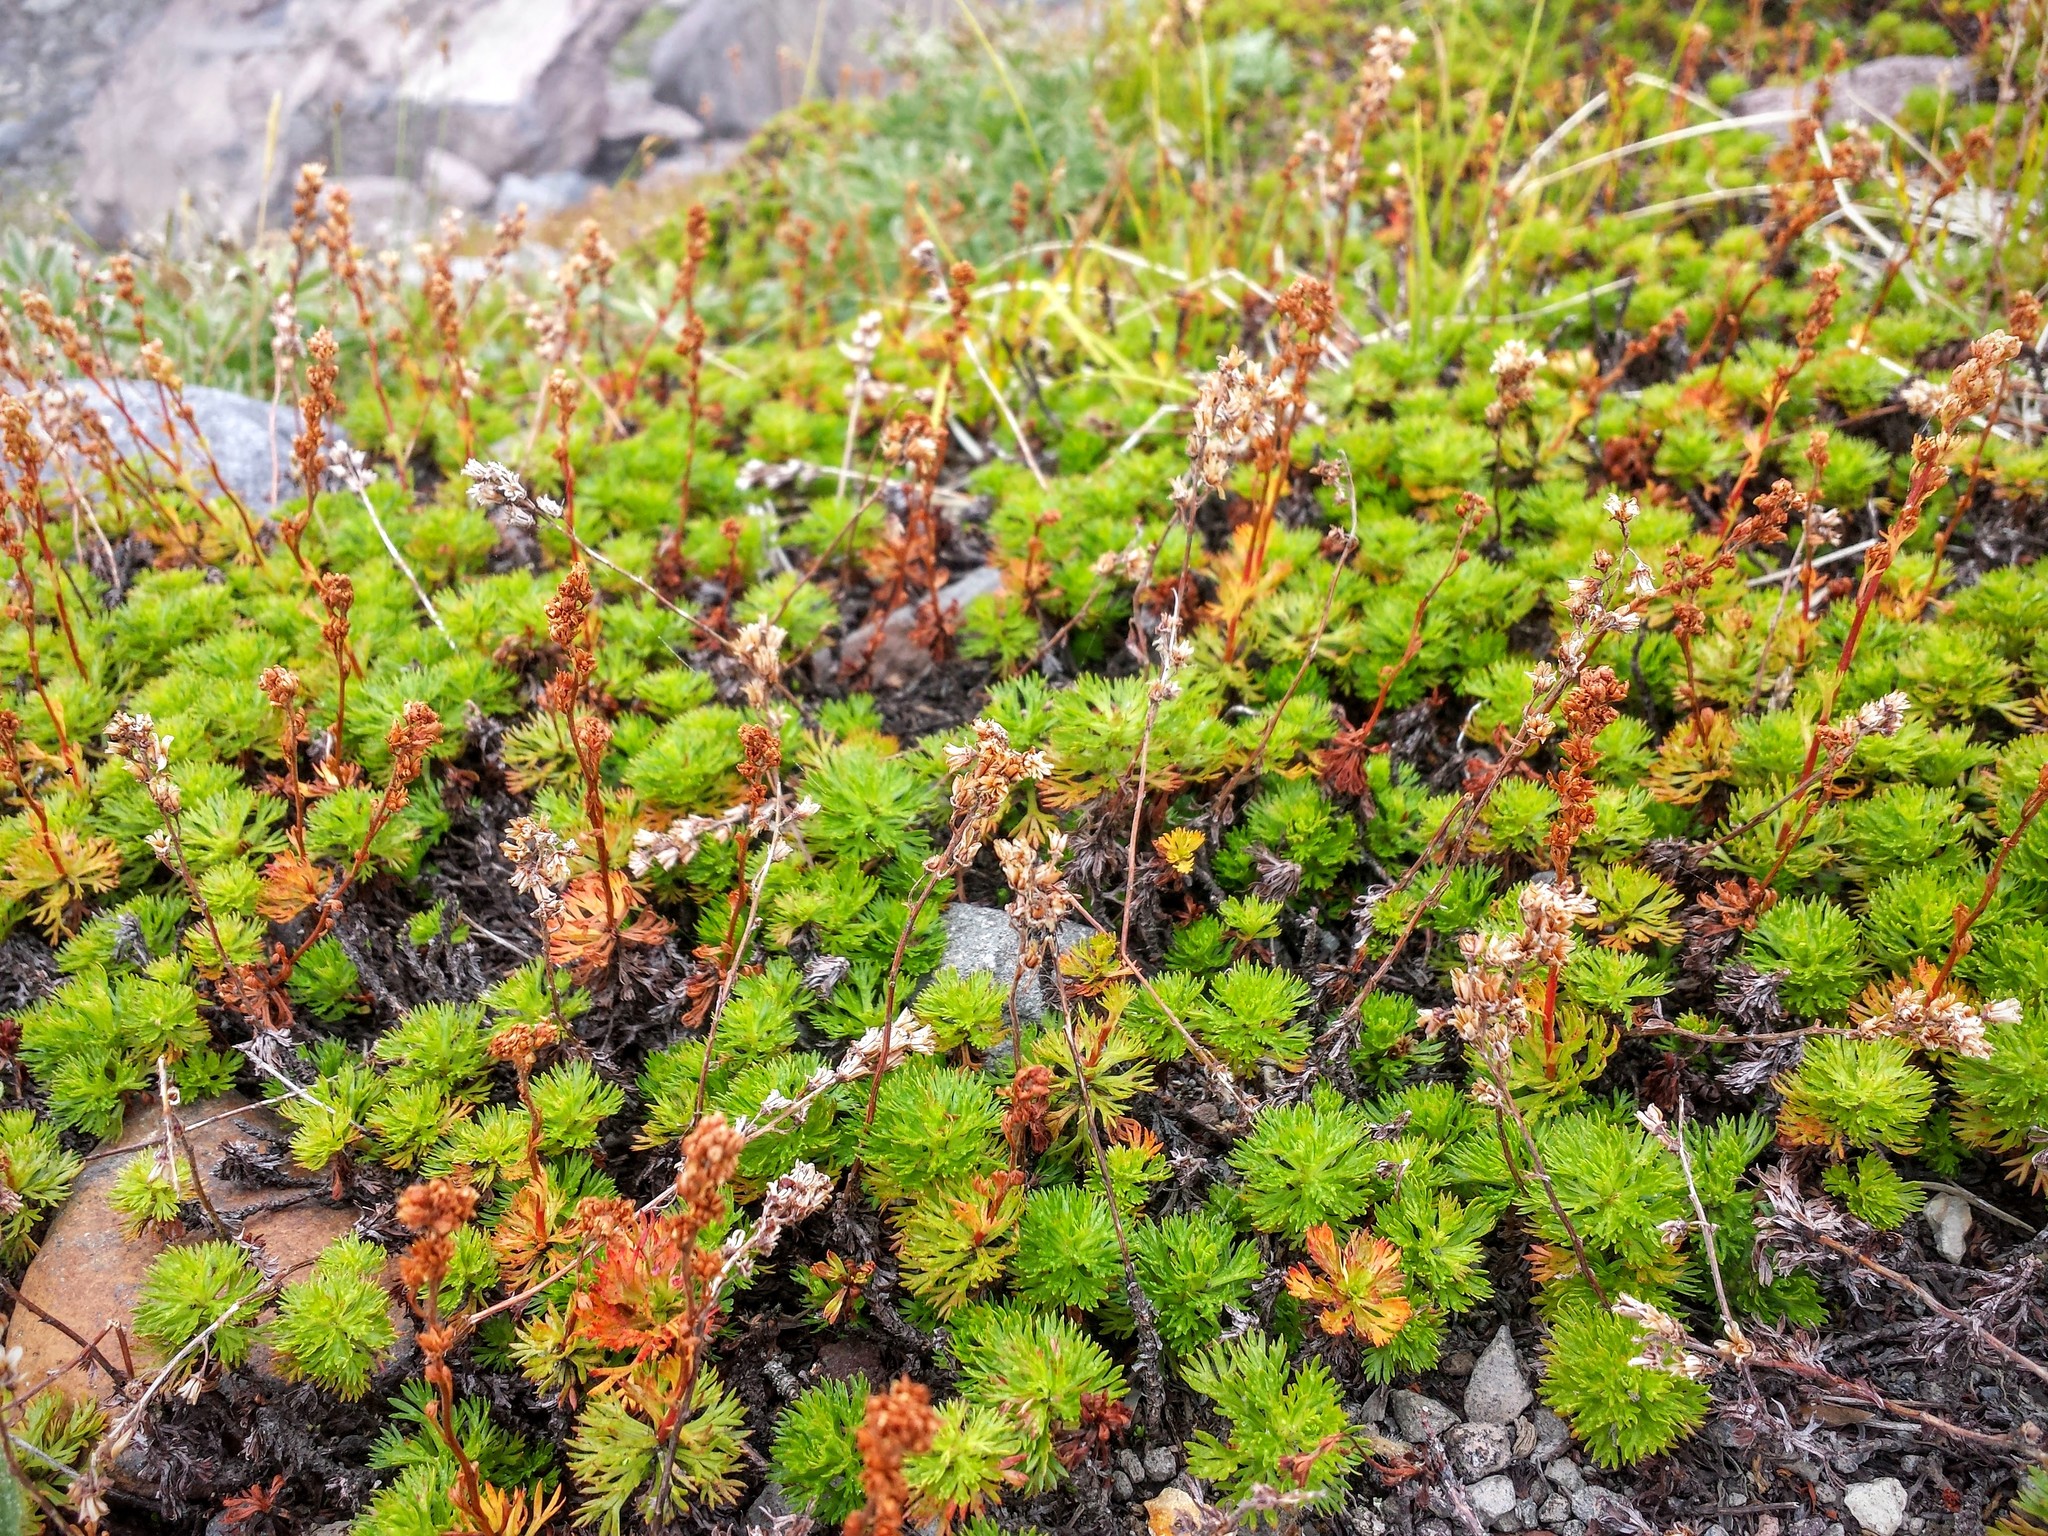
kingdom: Plantae
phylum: Tracheophyta
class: Magnoliopsida
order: Rosales
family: Rosaceae
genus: Luetkea
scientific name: Luetkea pectinata
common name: Partridgefoot
